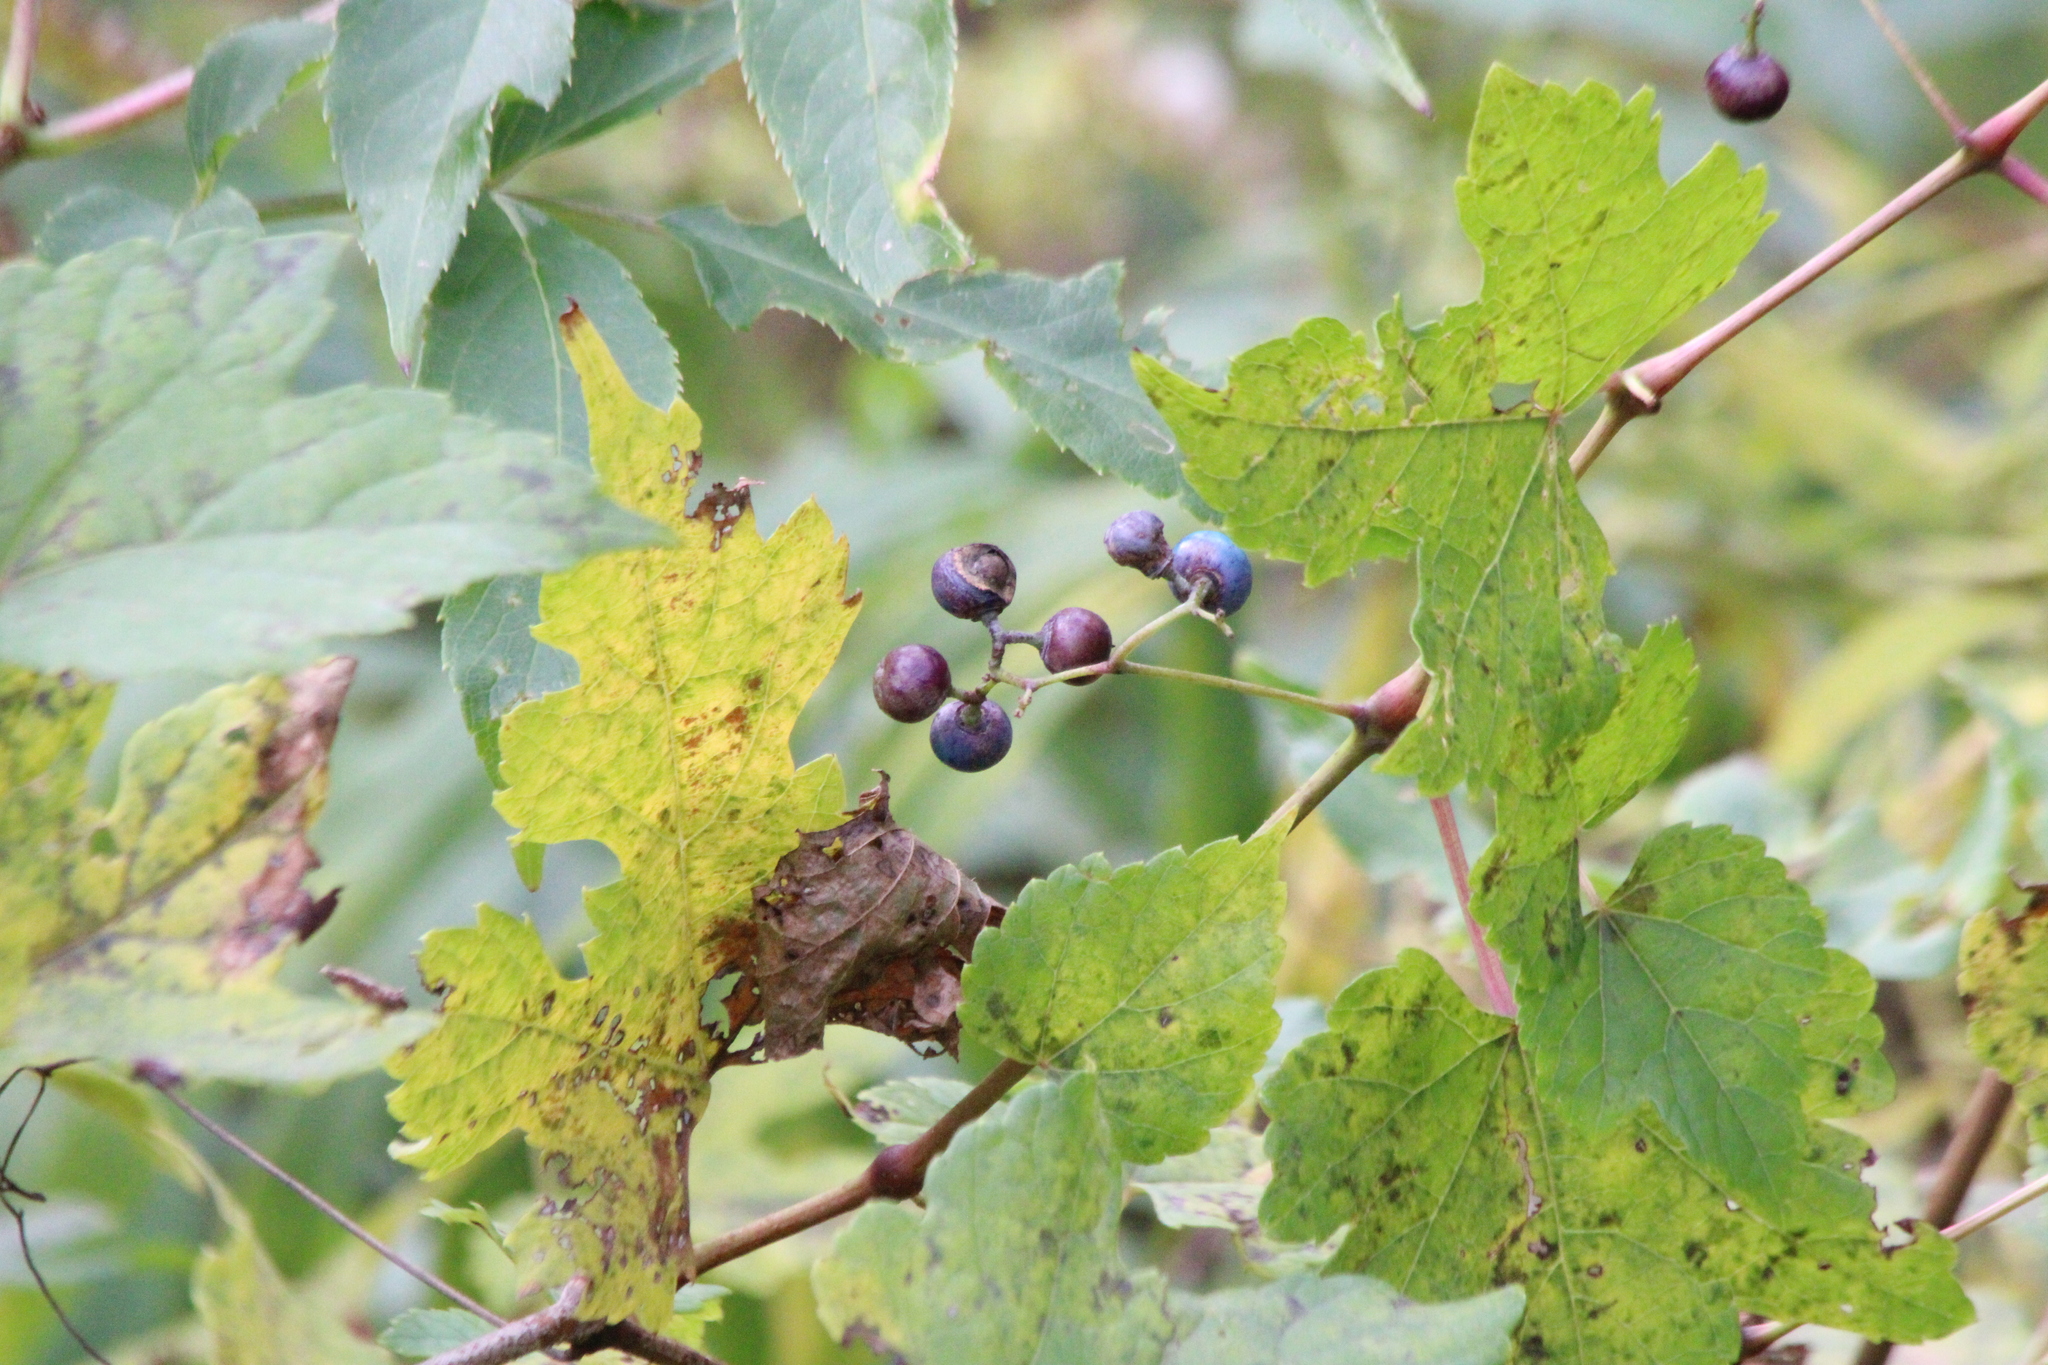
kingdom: Plantae
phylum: Tracheophyta
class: Magnoliopsida
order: Vitales
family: Vitaceae
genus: Ampelopsis
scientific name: Ampelopsis glandulosa
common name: Amur peppervine
